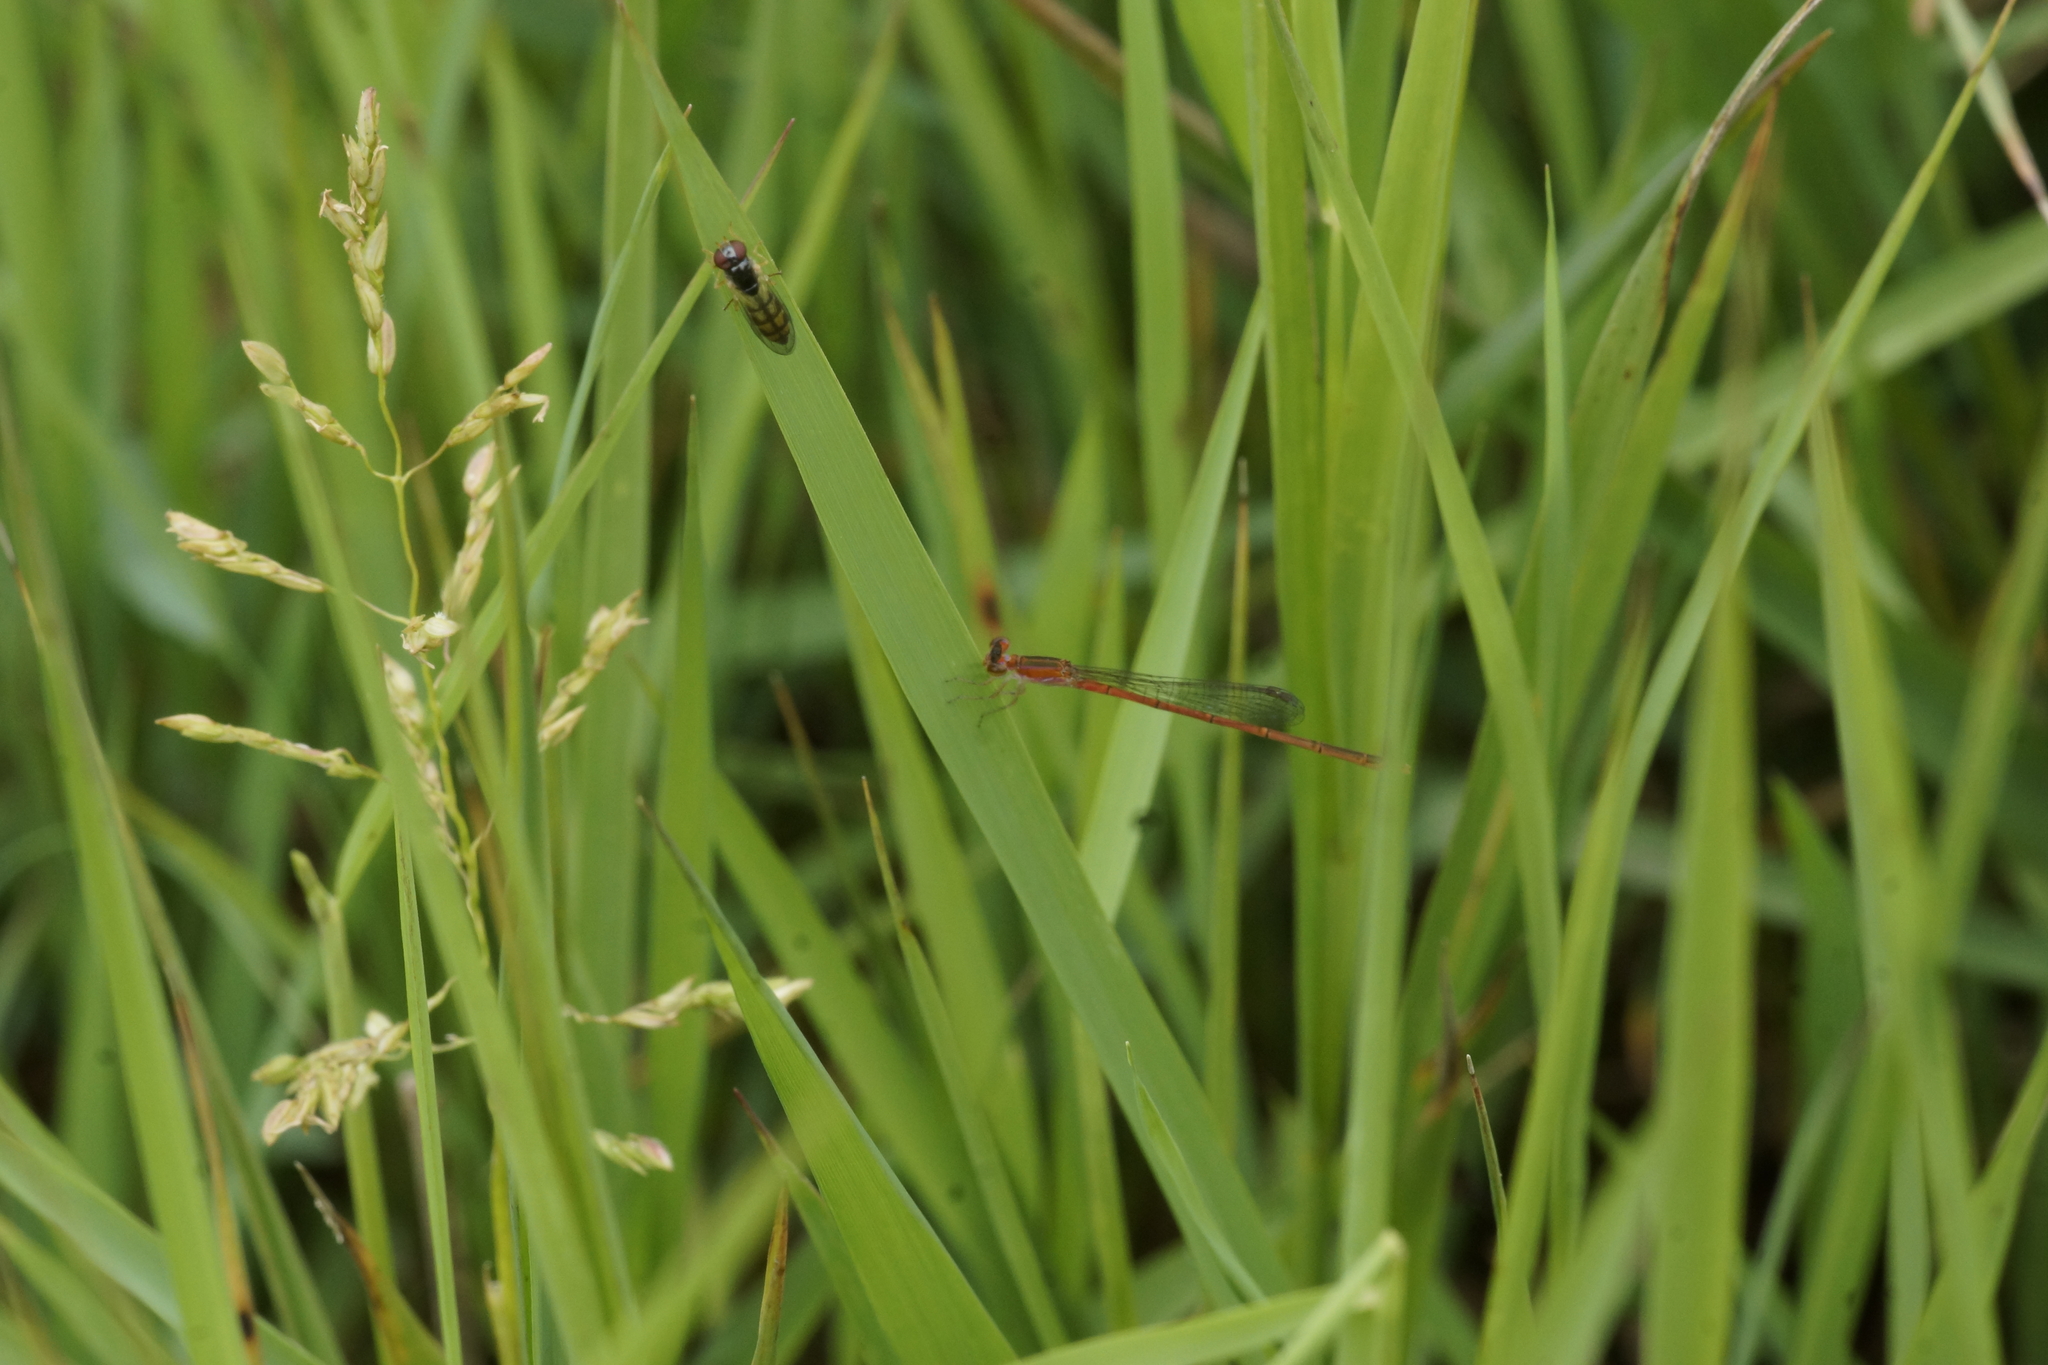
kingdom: Animalia
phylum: Arthropoda
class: Insecta
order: Odonata
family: Coenagrionidae
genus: Agriocnemis
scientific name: Agriocnemis pygmaea
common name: Pygmy wisp
